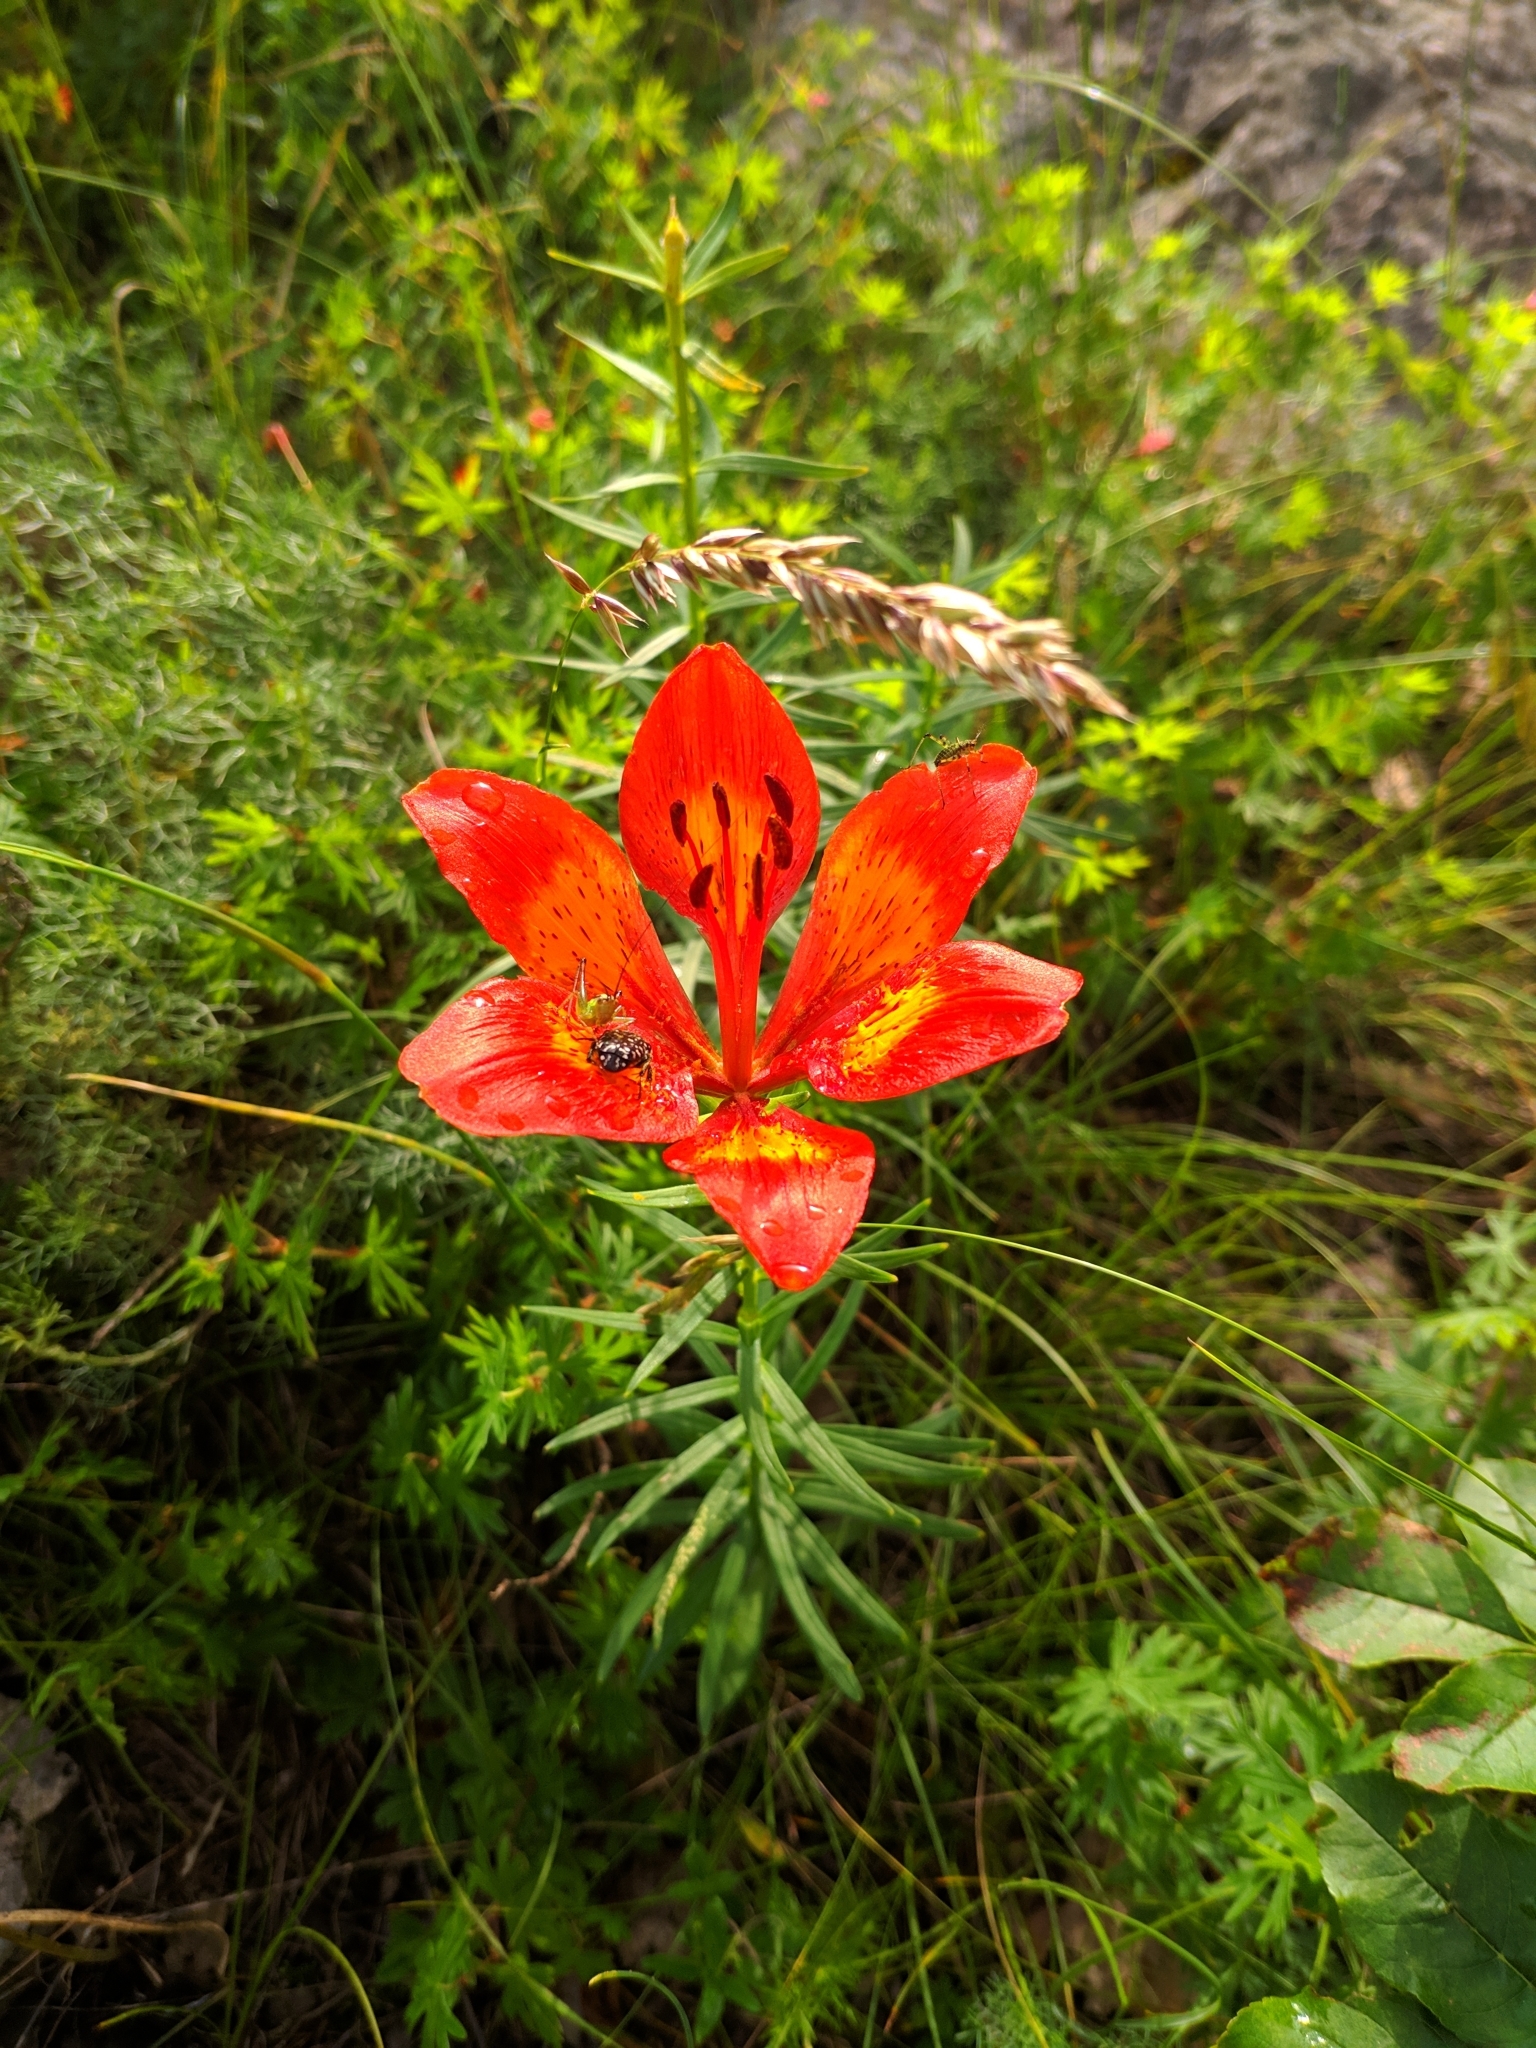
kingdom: Plantae
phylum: Tracheophyta
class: Liliopsida
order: Liliales
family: Liliaceae
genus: Lilium
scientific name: Lilium bulbiferum
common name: Orange lily
